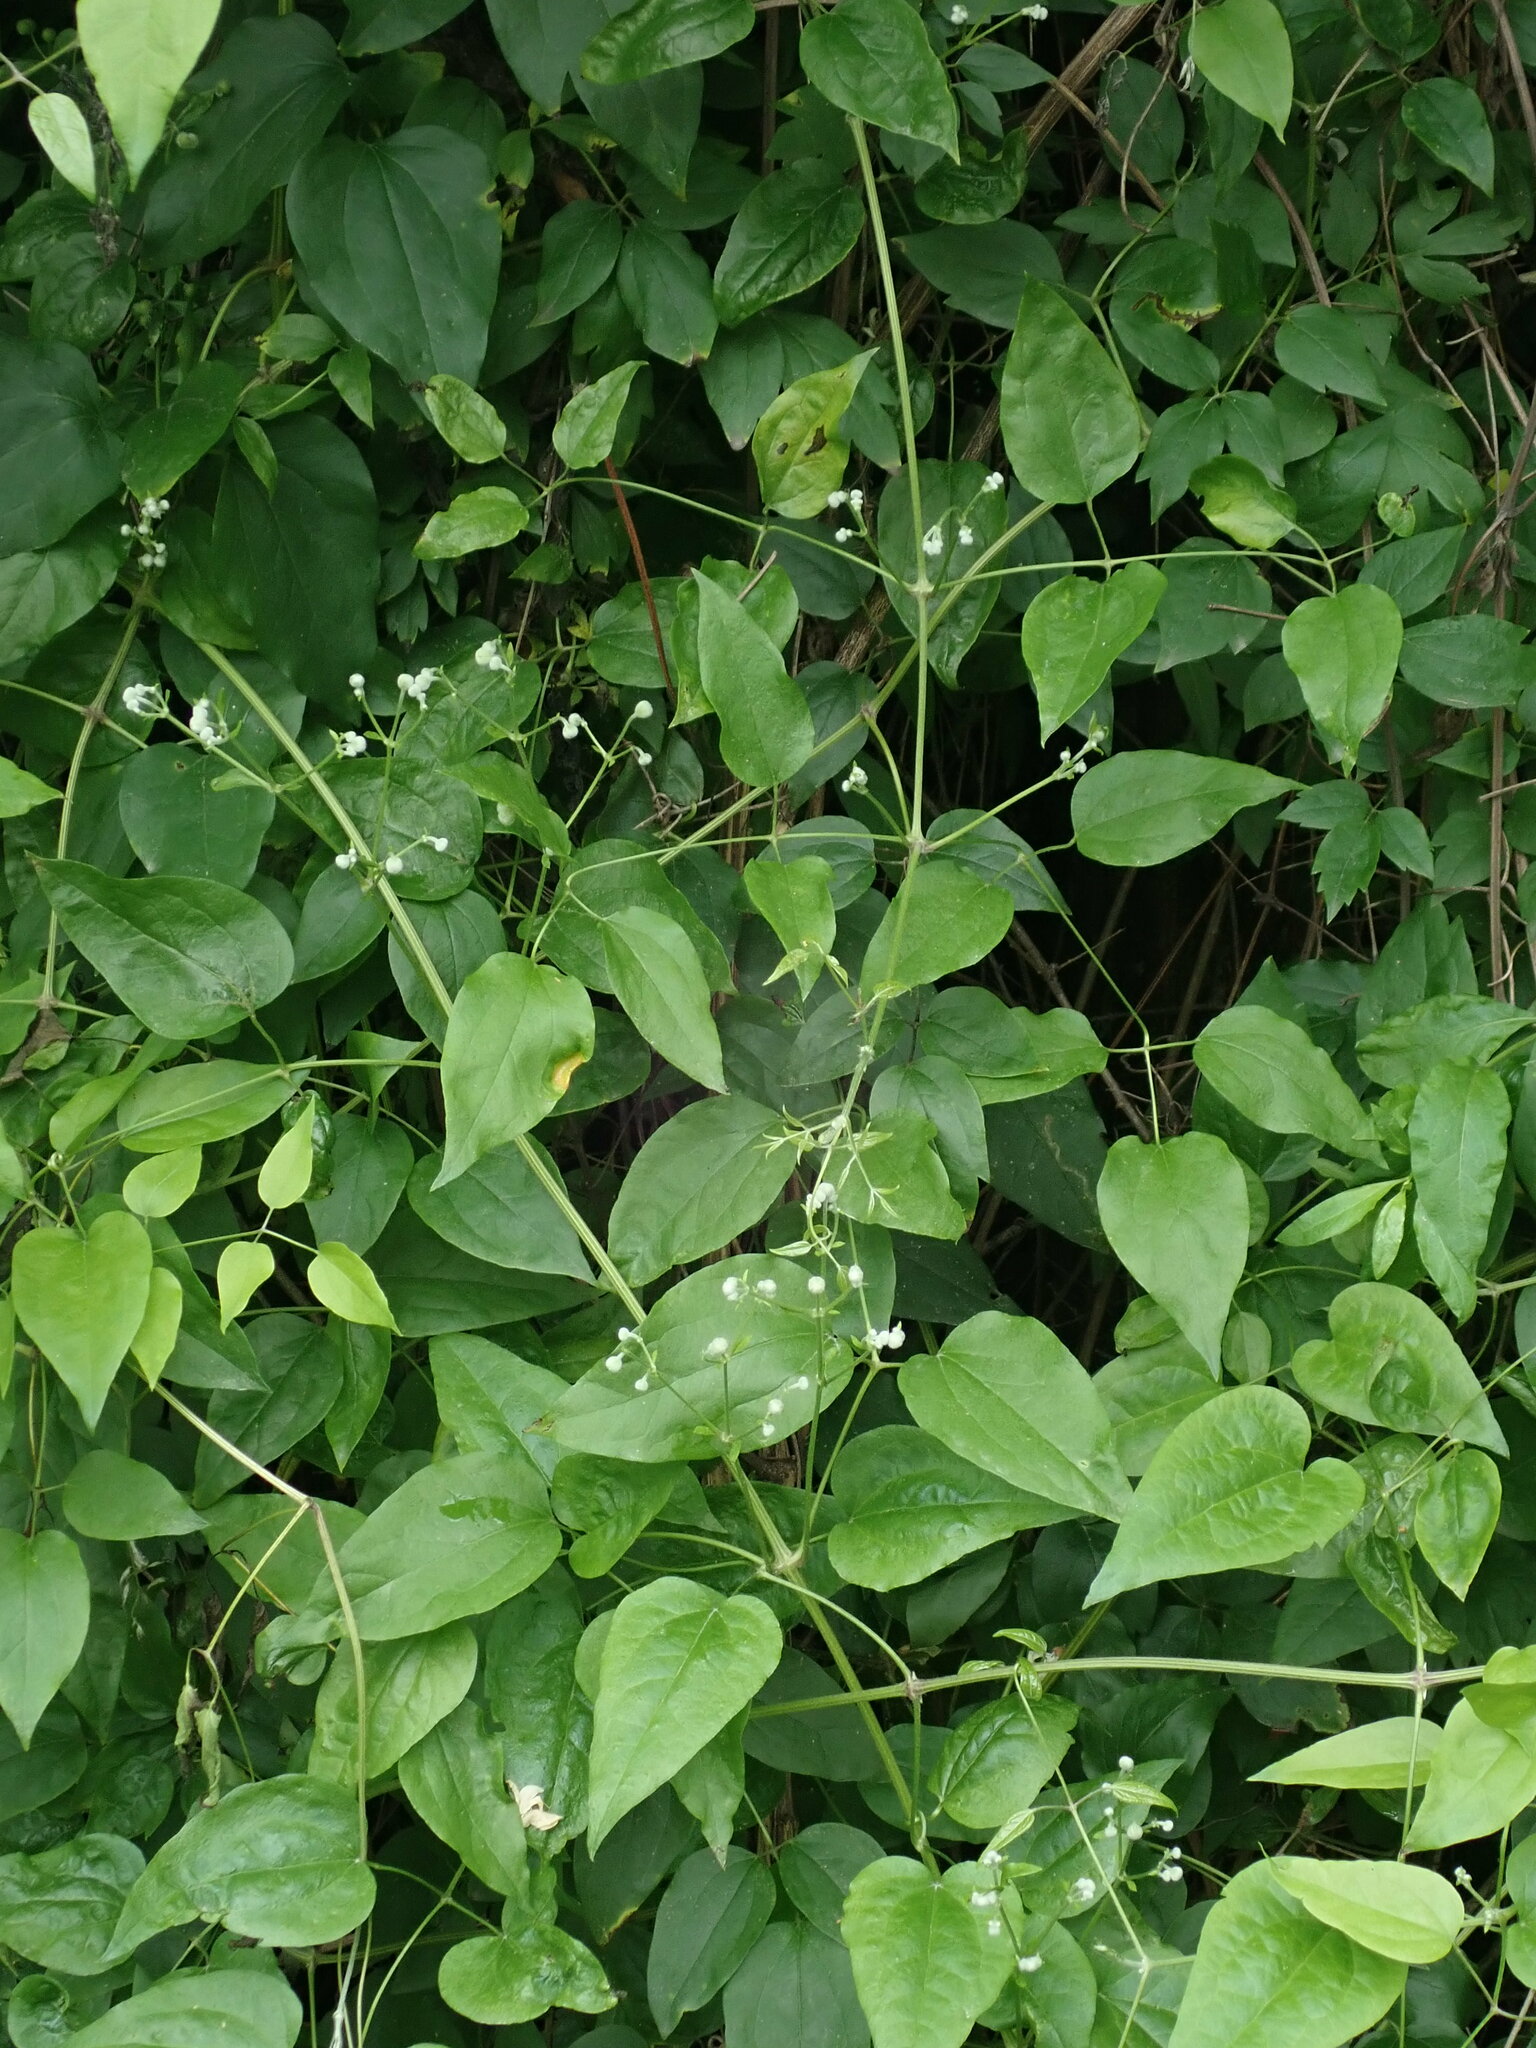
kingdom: Plantae
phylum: Tracheophyta
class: Magnoliopsida
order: Ranunculales
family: Ranunculaceae
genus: Clematis
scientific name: Clematis vitalba
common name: Evergreen clematis
